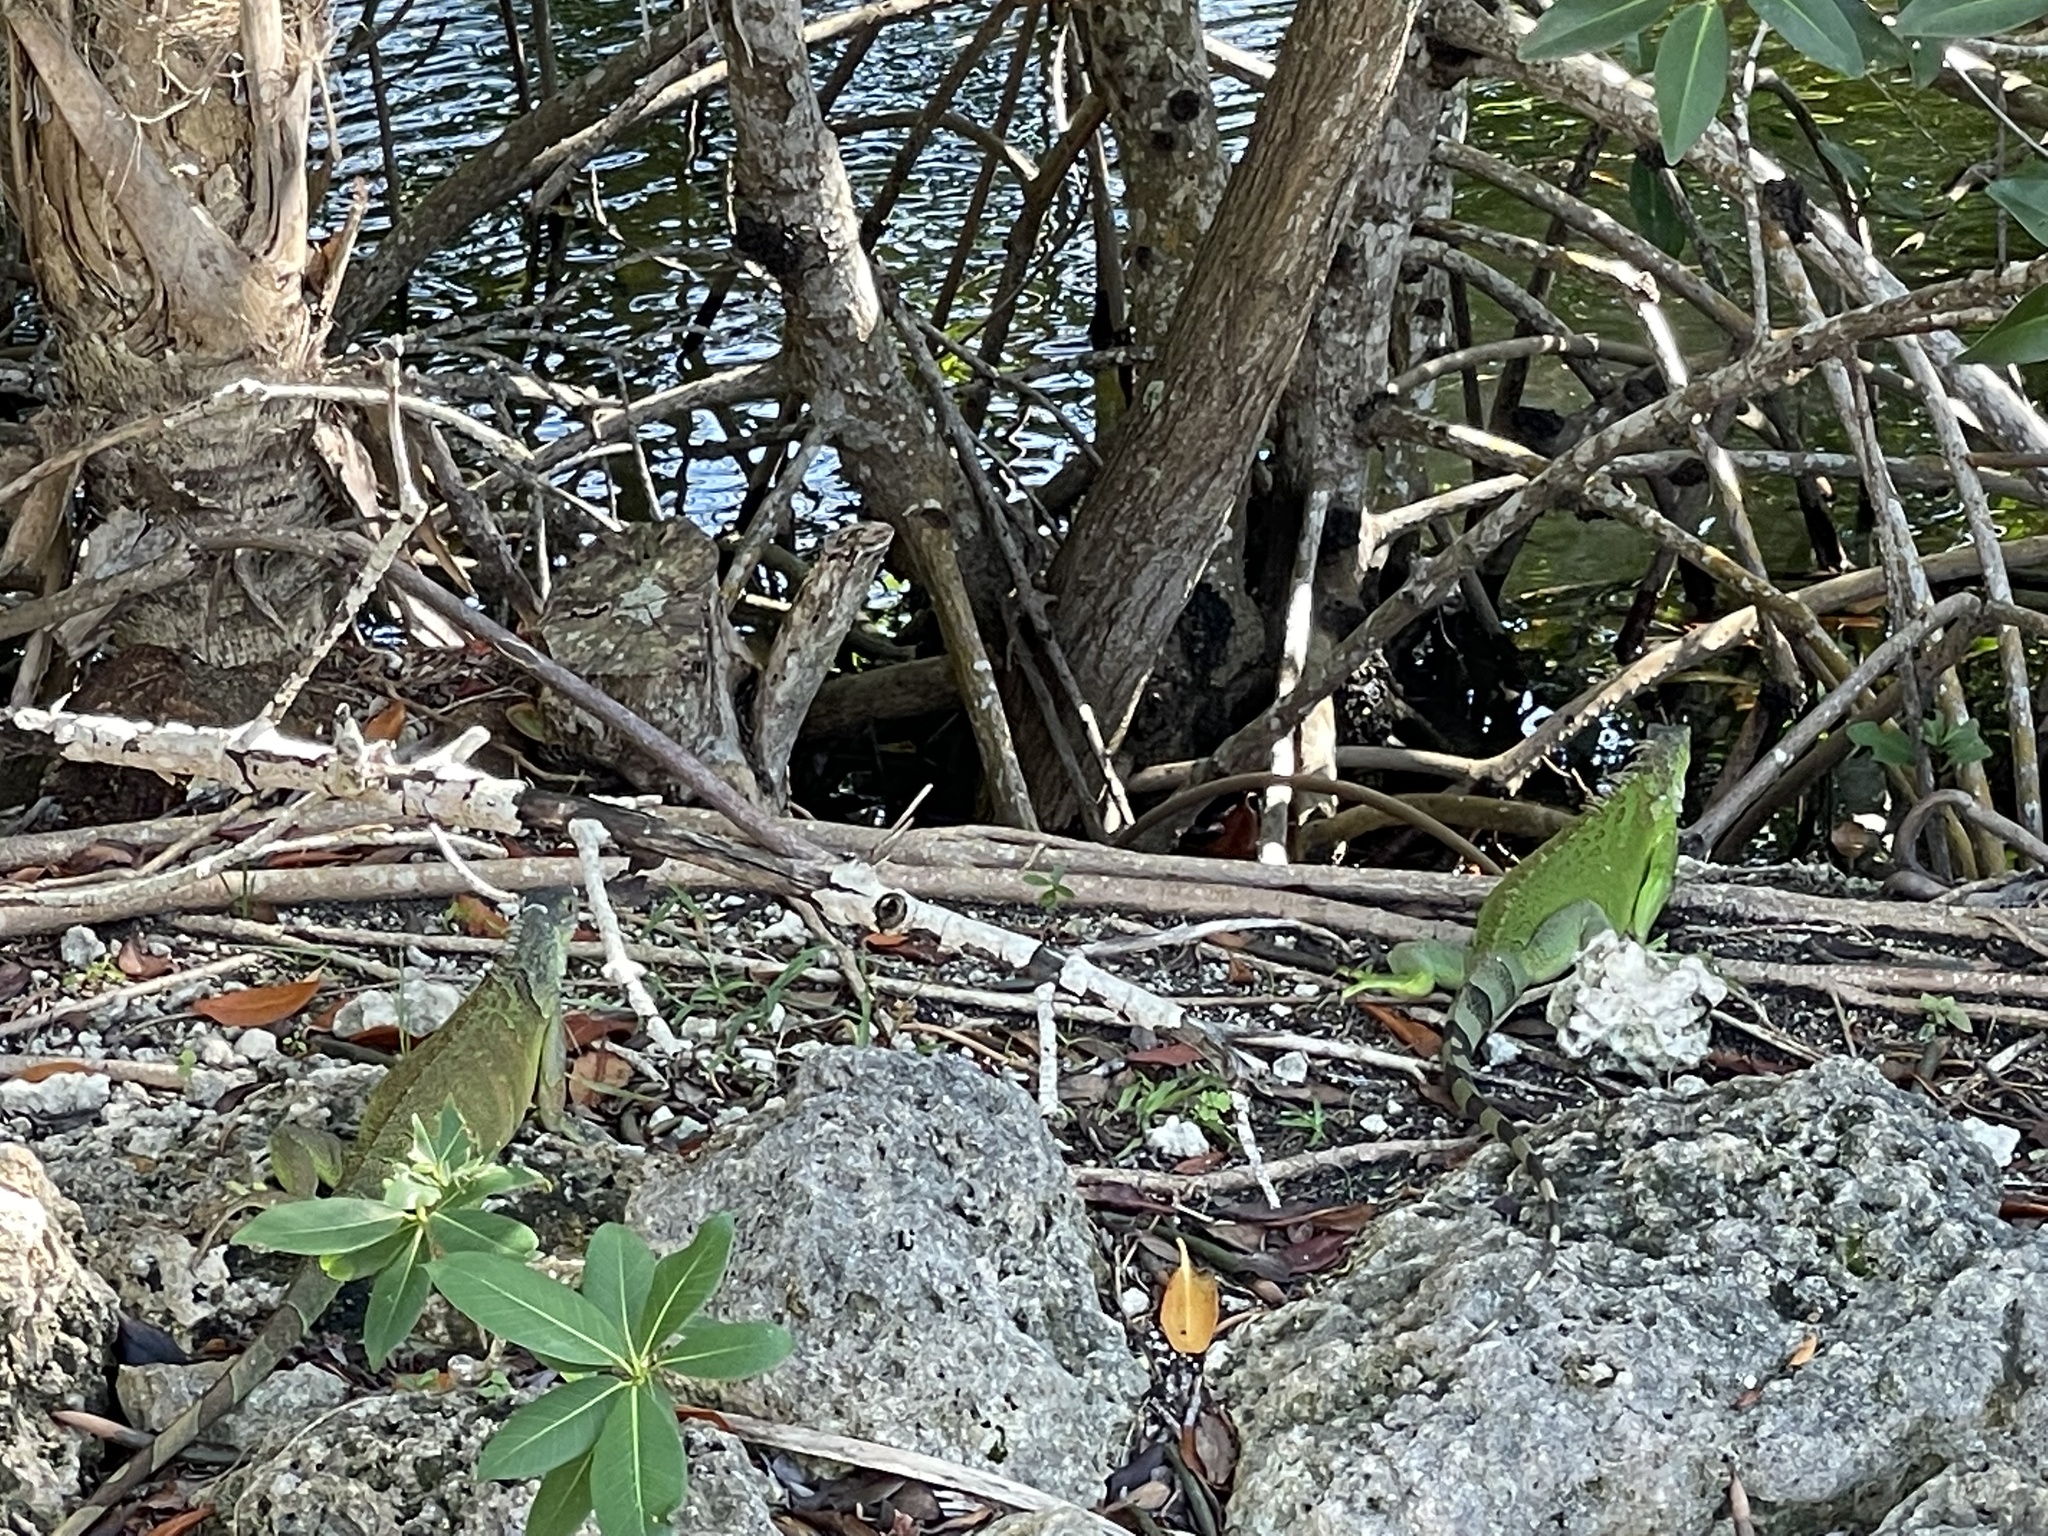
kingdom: Animalia
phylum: Chordata
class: Squamata
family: Iguanidae
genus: Iguana
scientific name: Iguana iguana
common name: Green iguana
